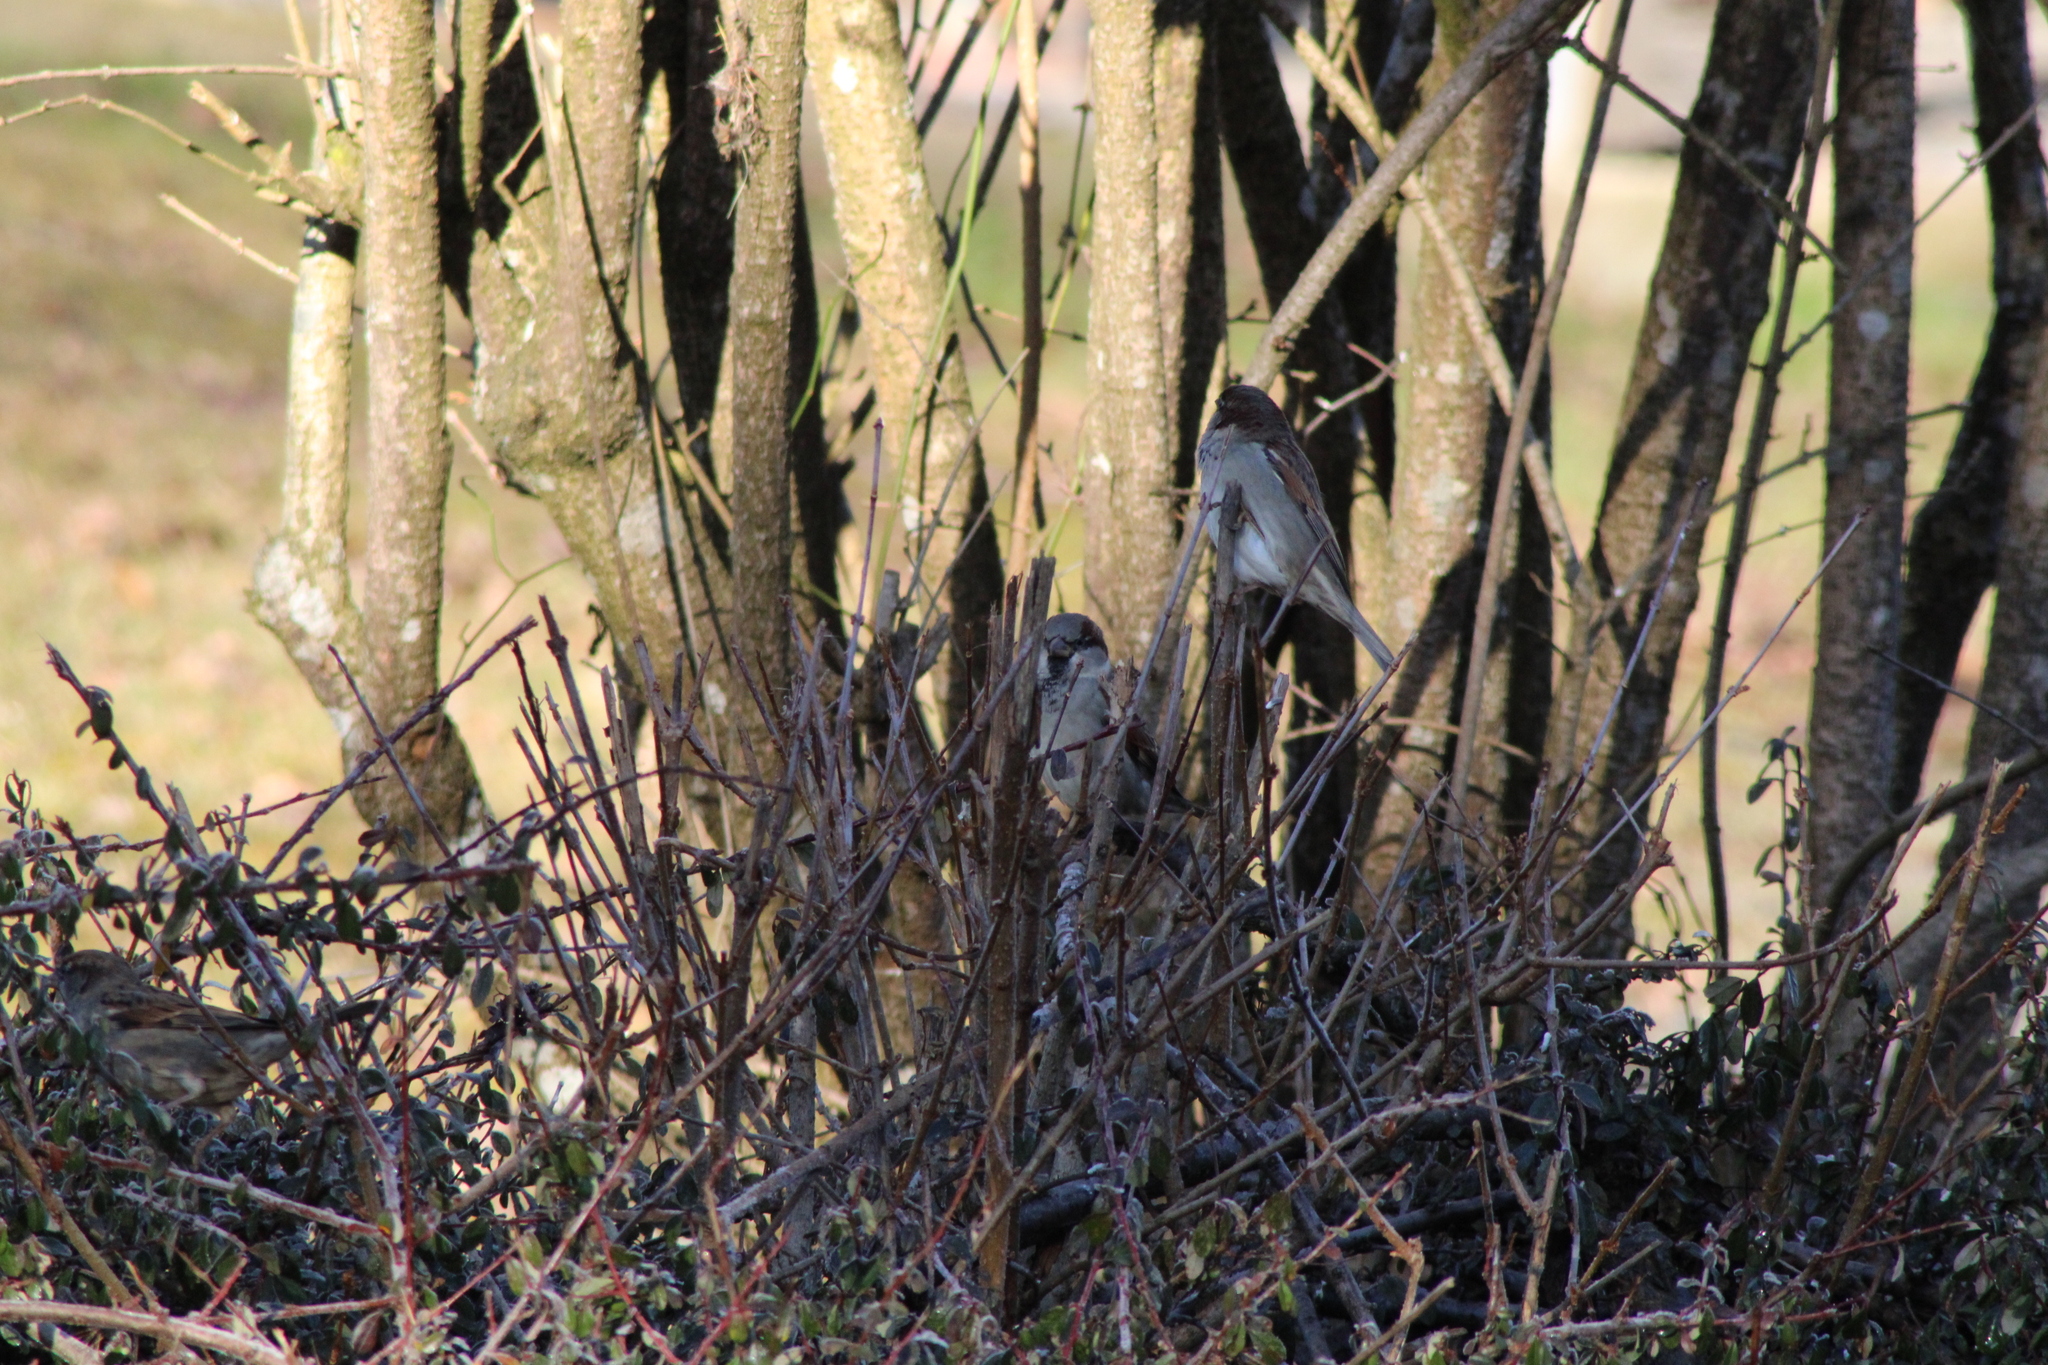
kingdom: Animalia
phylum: Chordata
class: Aves
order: Passeriformes
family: Passeridae
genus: Passer
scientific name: Passer domesticus
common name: House sparrow
